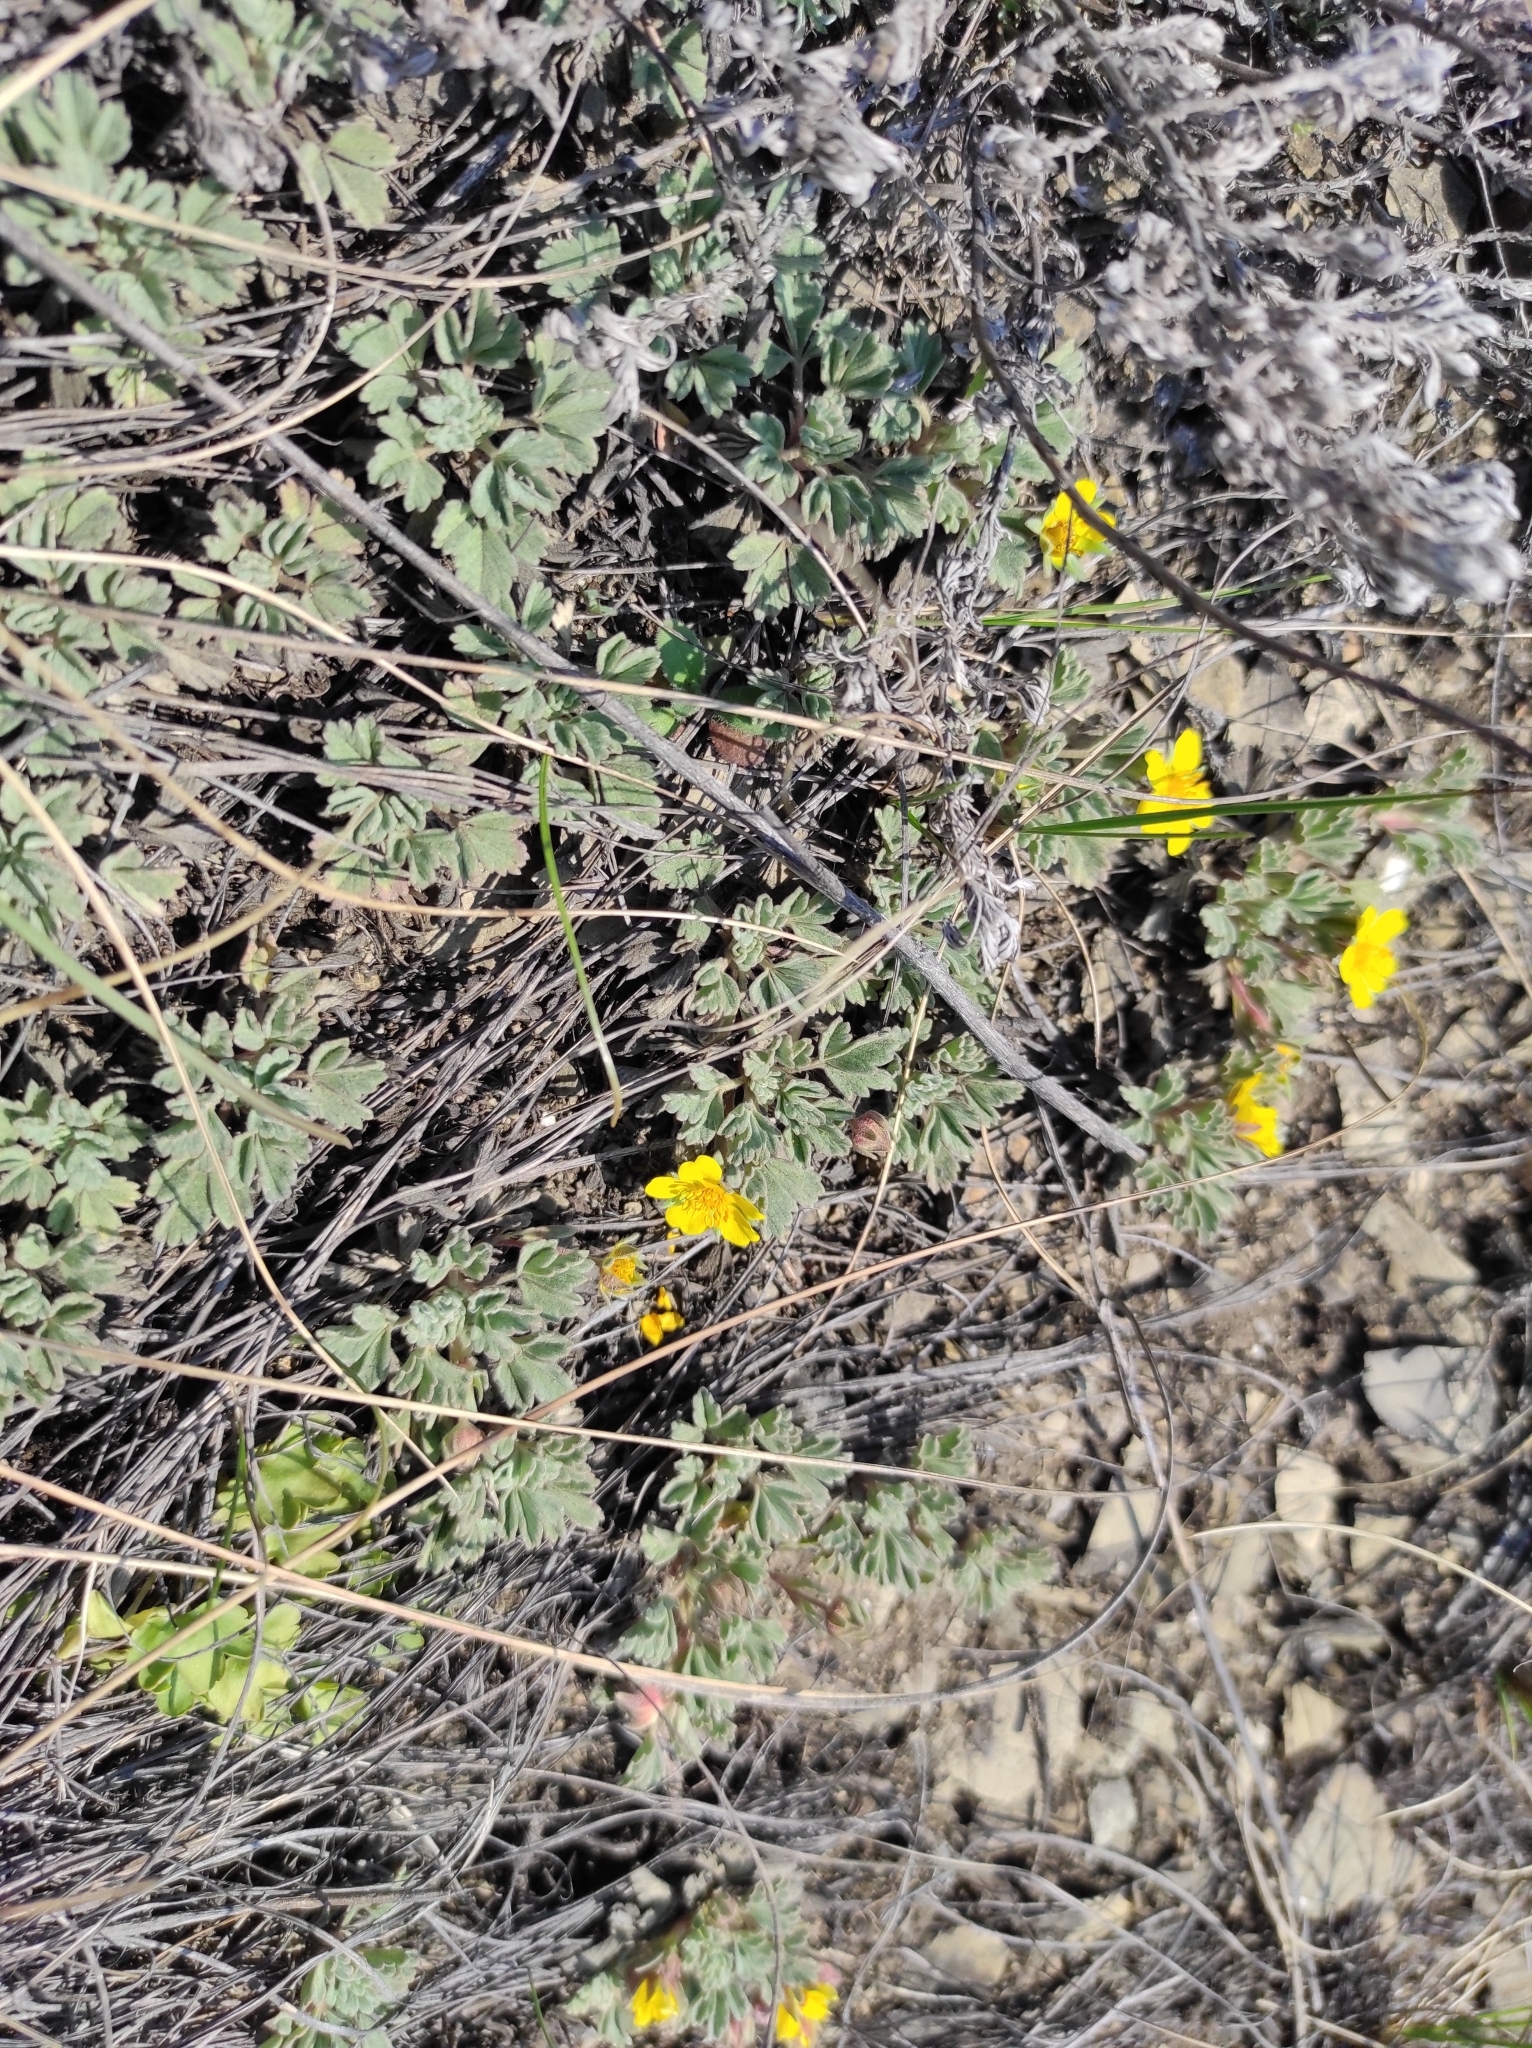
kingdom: Plantae
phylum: Tracheophyta
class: Magnoliopsida
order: Rosales
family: Rosaceae
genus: Potentilla
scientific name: Potentilla acaulis
